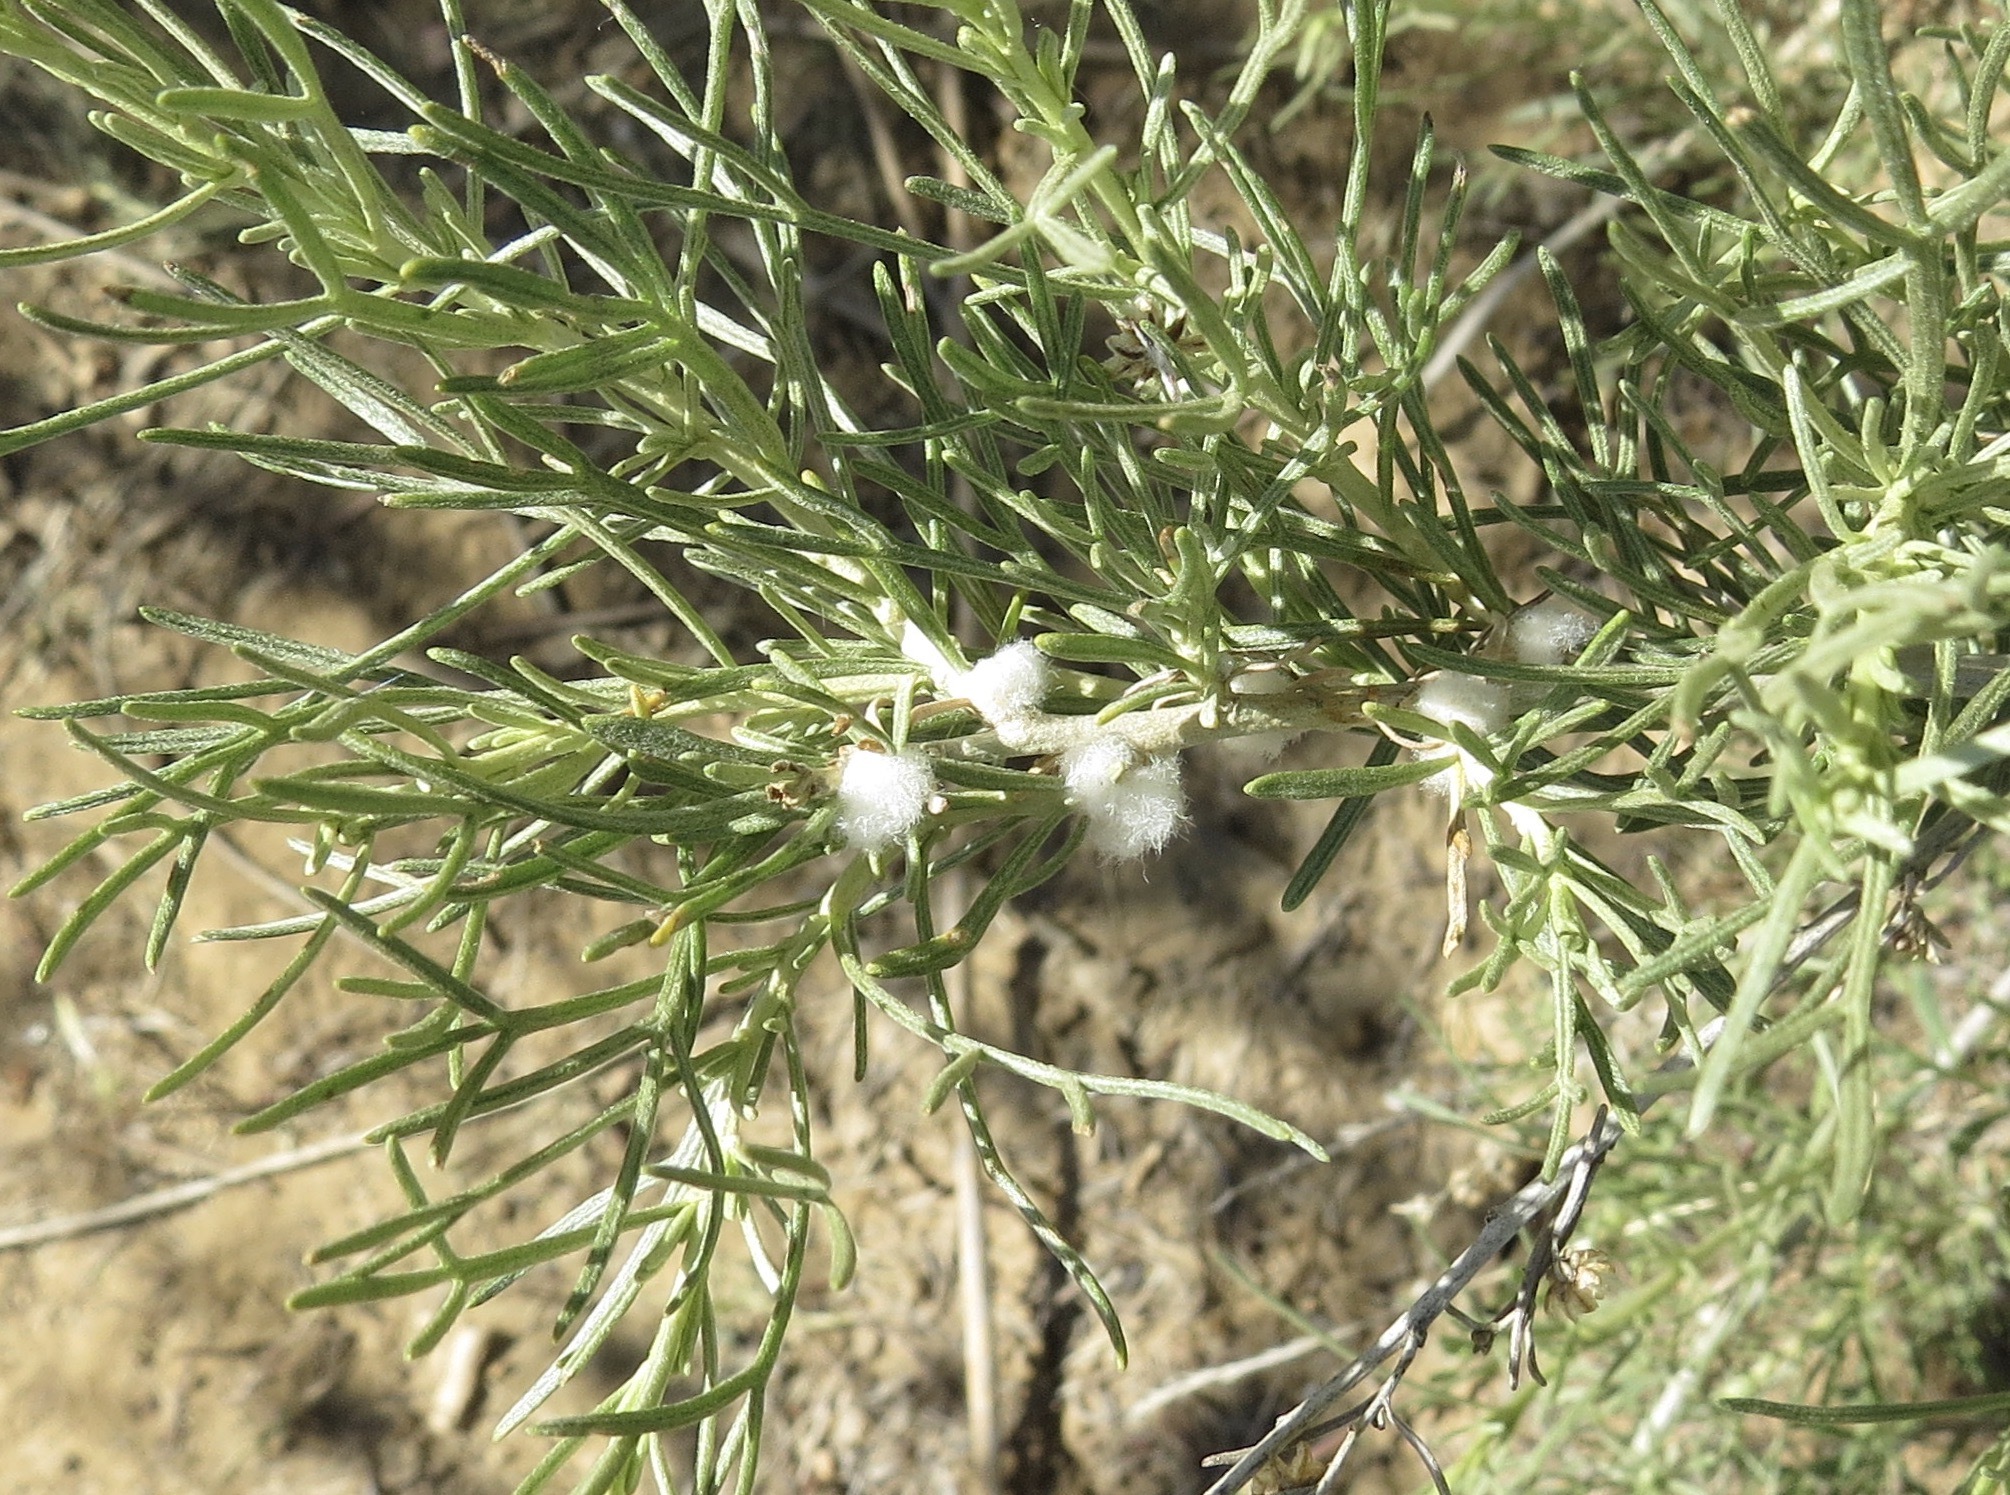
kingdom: Animalia
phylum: Arthropoda
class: Insecta
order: Diptera
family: Cecidomyiidae
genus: Rhopalomyia
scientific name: Rhopalomyia floccosa
